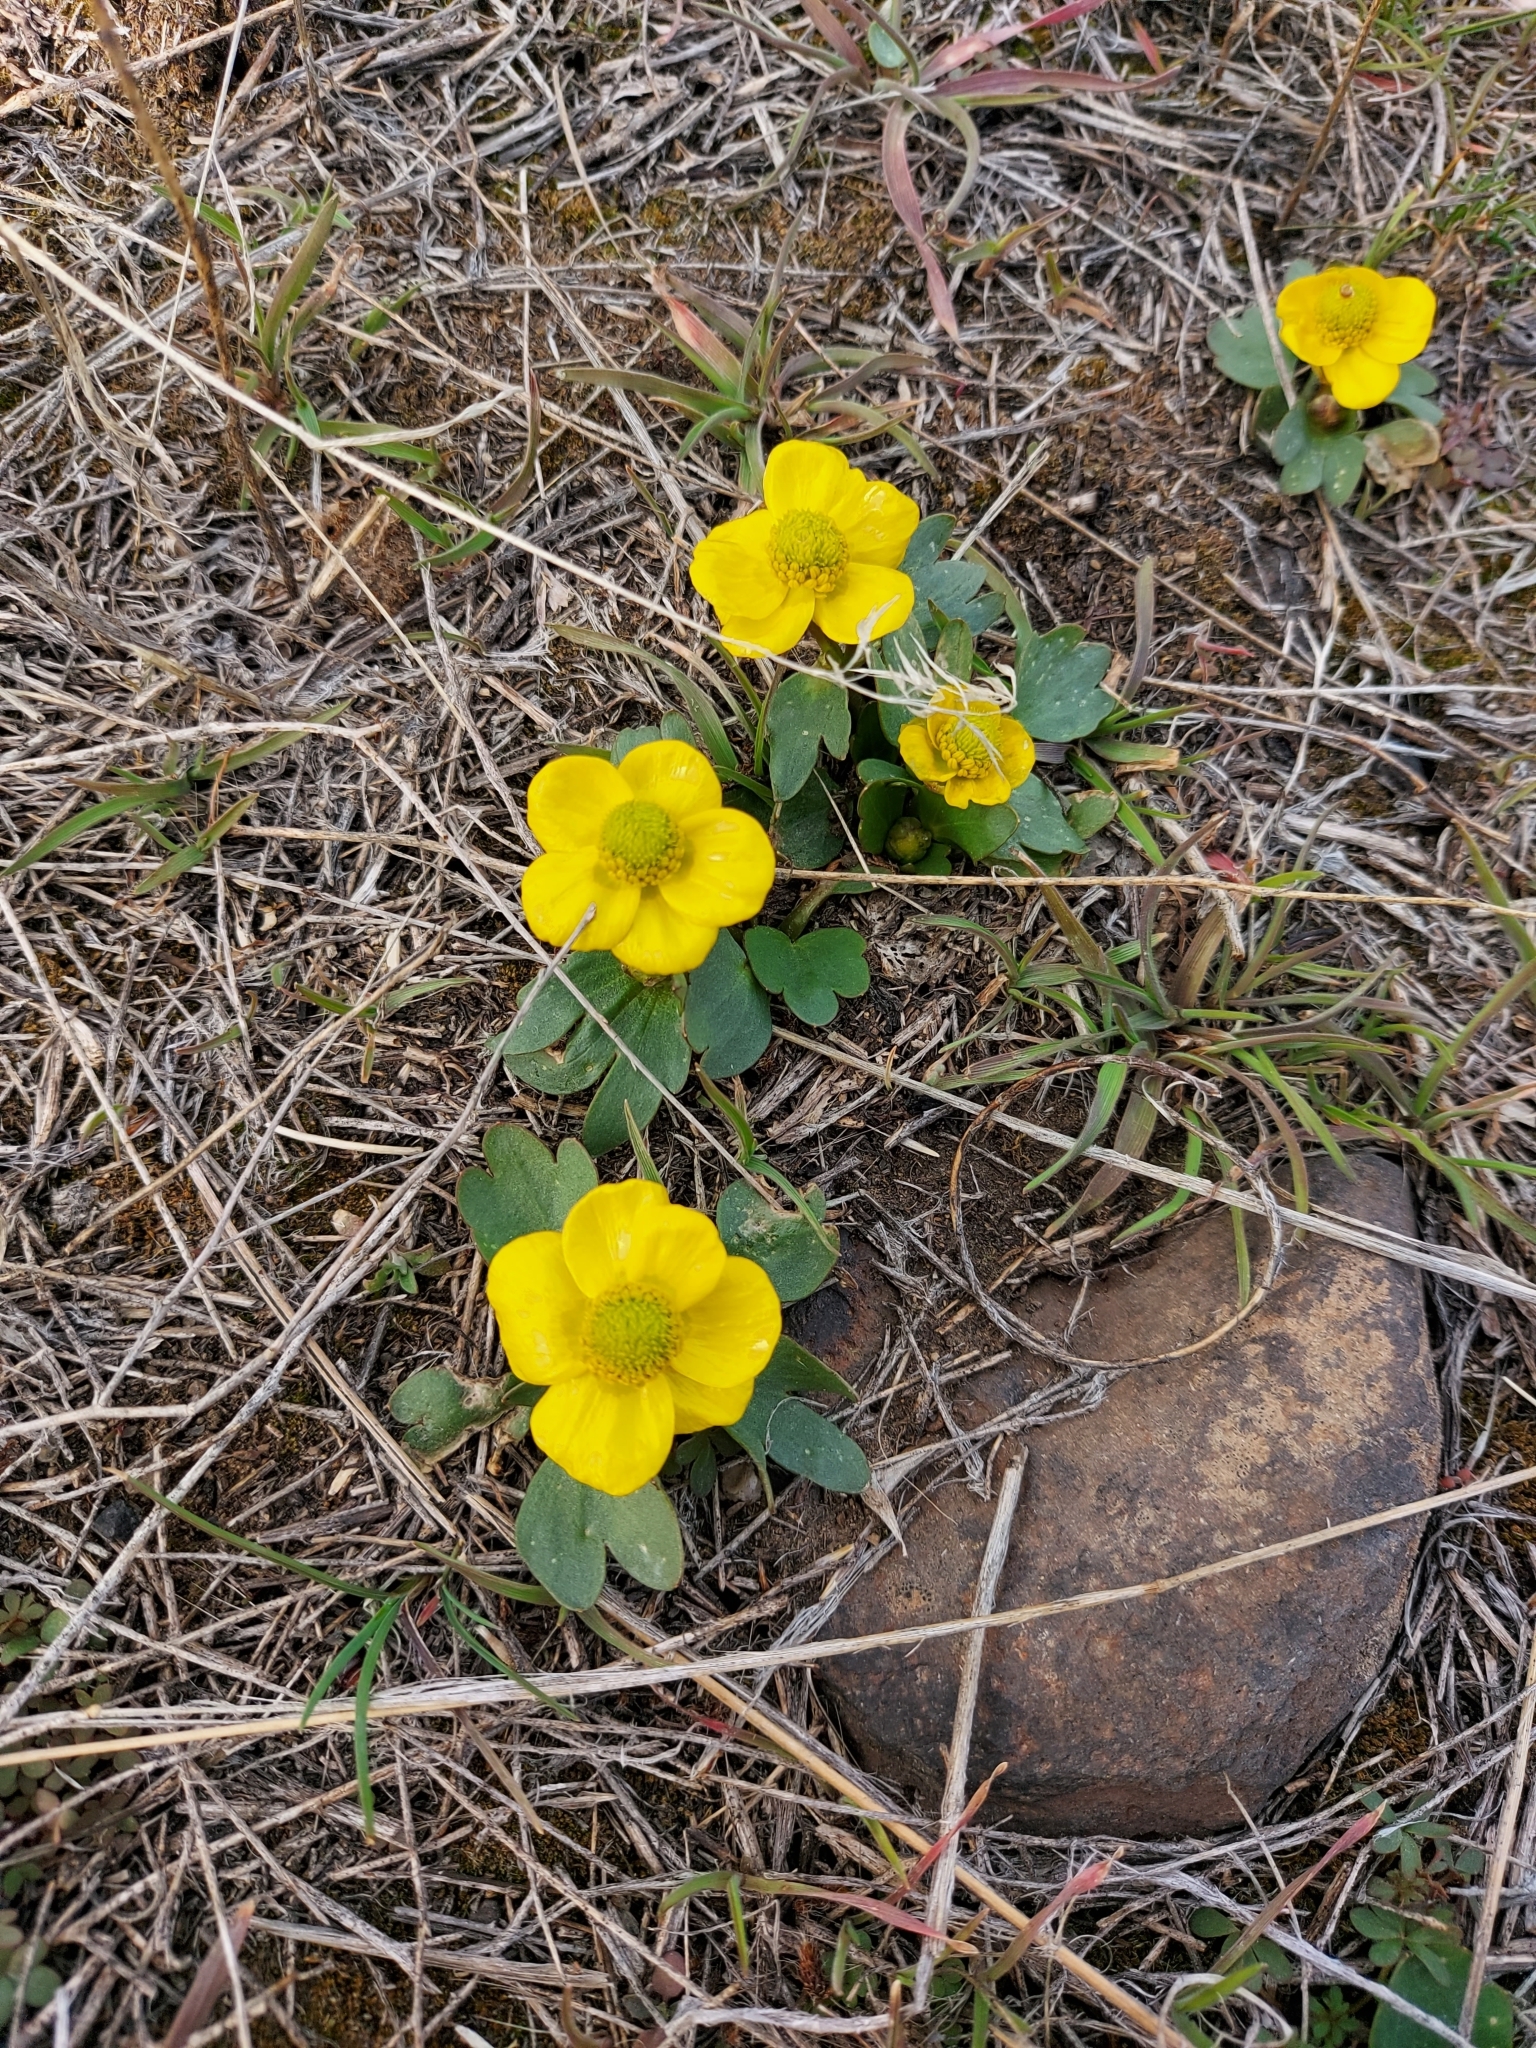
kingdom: Plantae
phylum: Tracheophyta
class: Magnoliopsida
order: Ranunculales
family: Ranunculaceae
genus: Ranunculus
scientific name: Ranunculus glaberrimus
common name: Sagebrush buttercup
